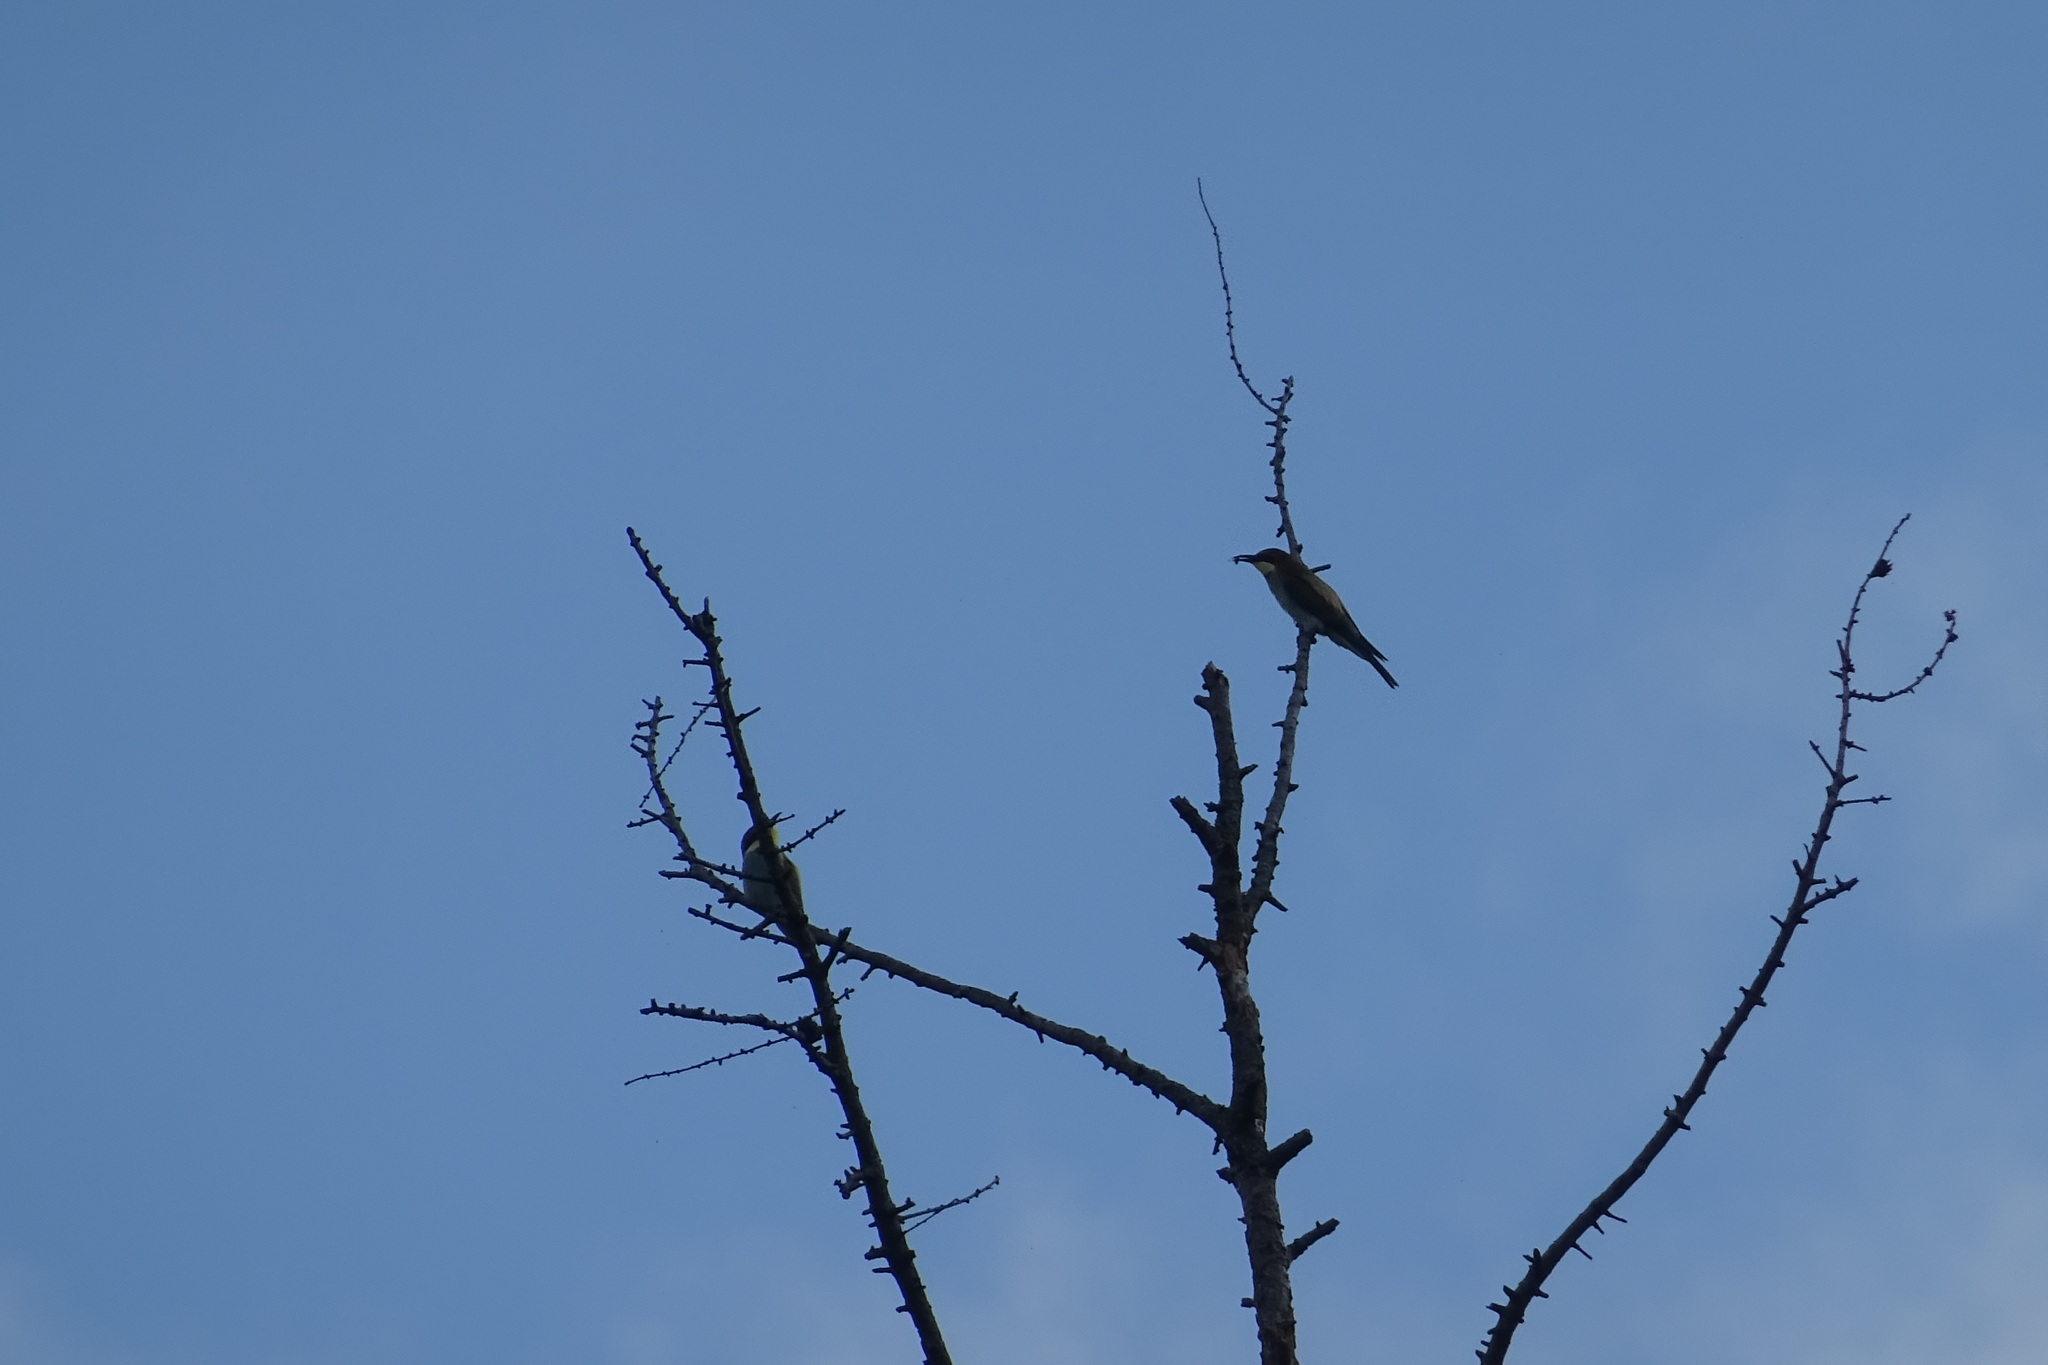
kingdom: Animalia
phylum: Chordata
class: Aves
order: Coraciiformes
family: Meropidae
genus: Merops
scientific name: Merops apiaster
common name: European bee-eater
